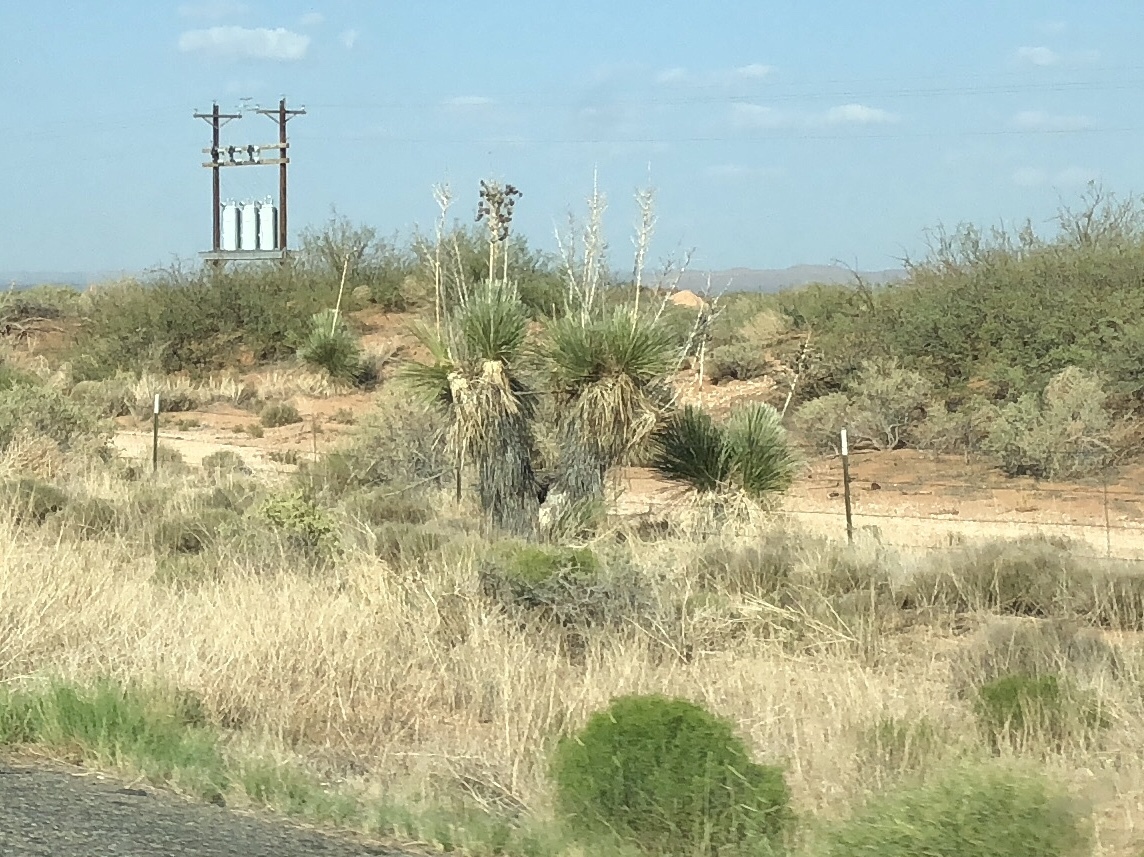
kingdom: Plantae
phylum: Tracheophyta
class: Liliopsida
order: Asparagales
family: Asparagaceae
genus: Yucca
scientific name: Yucca elata
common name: Palmella
